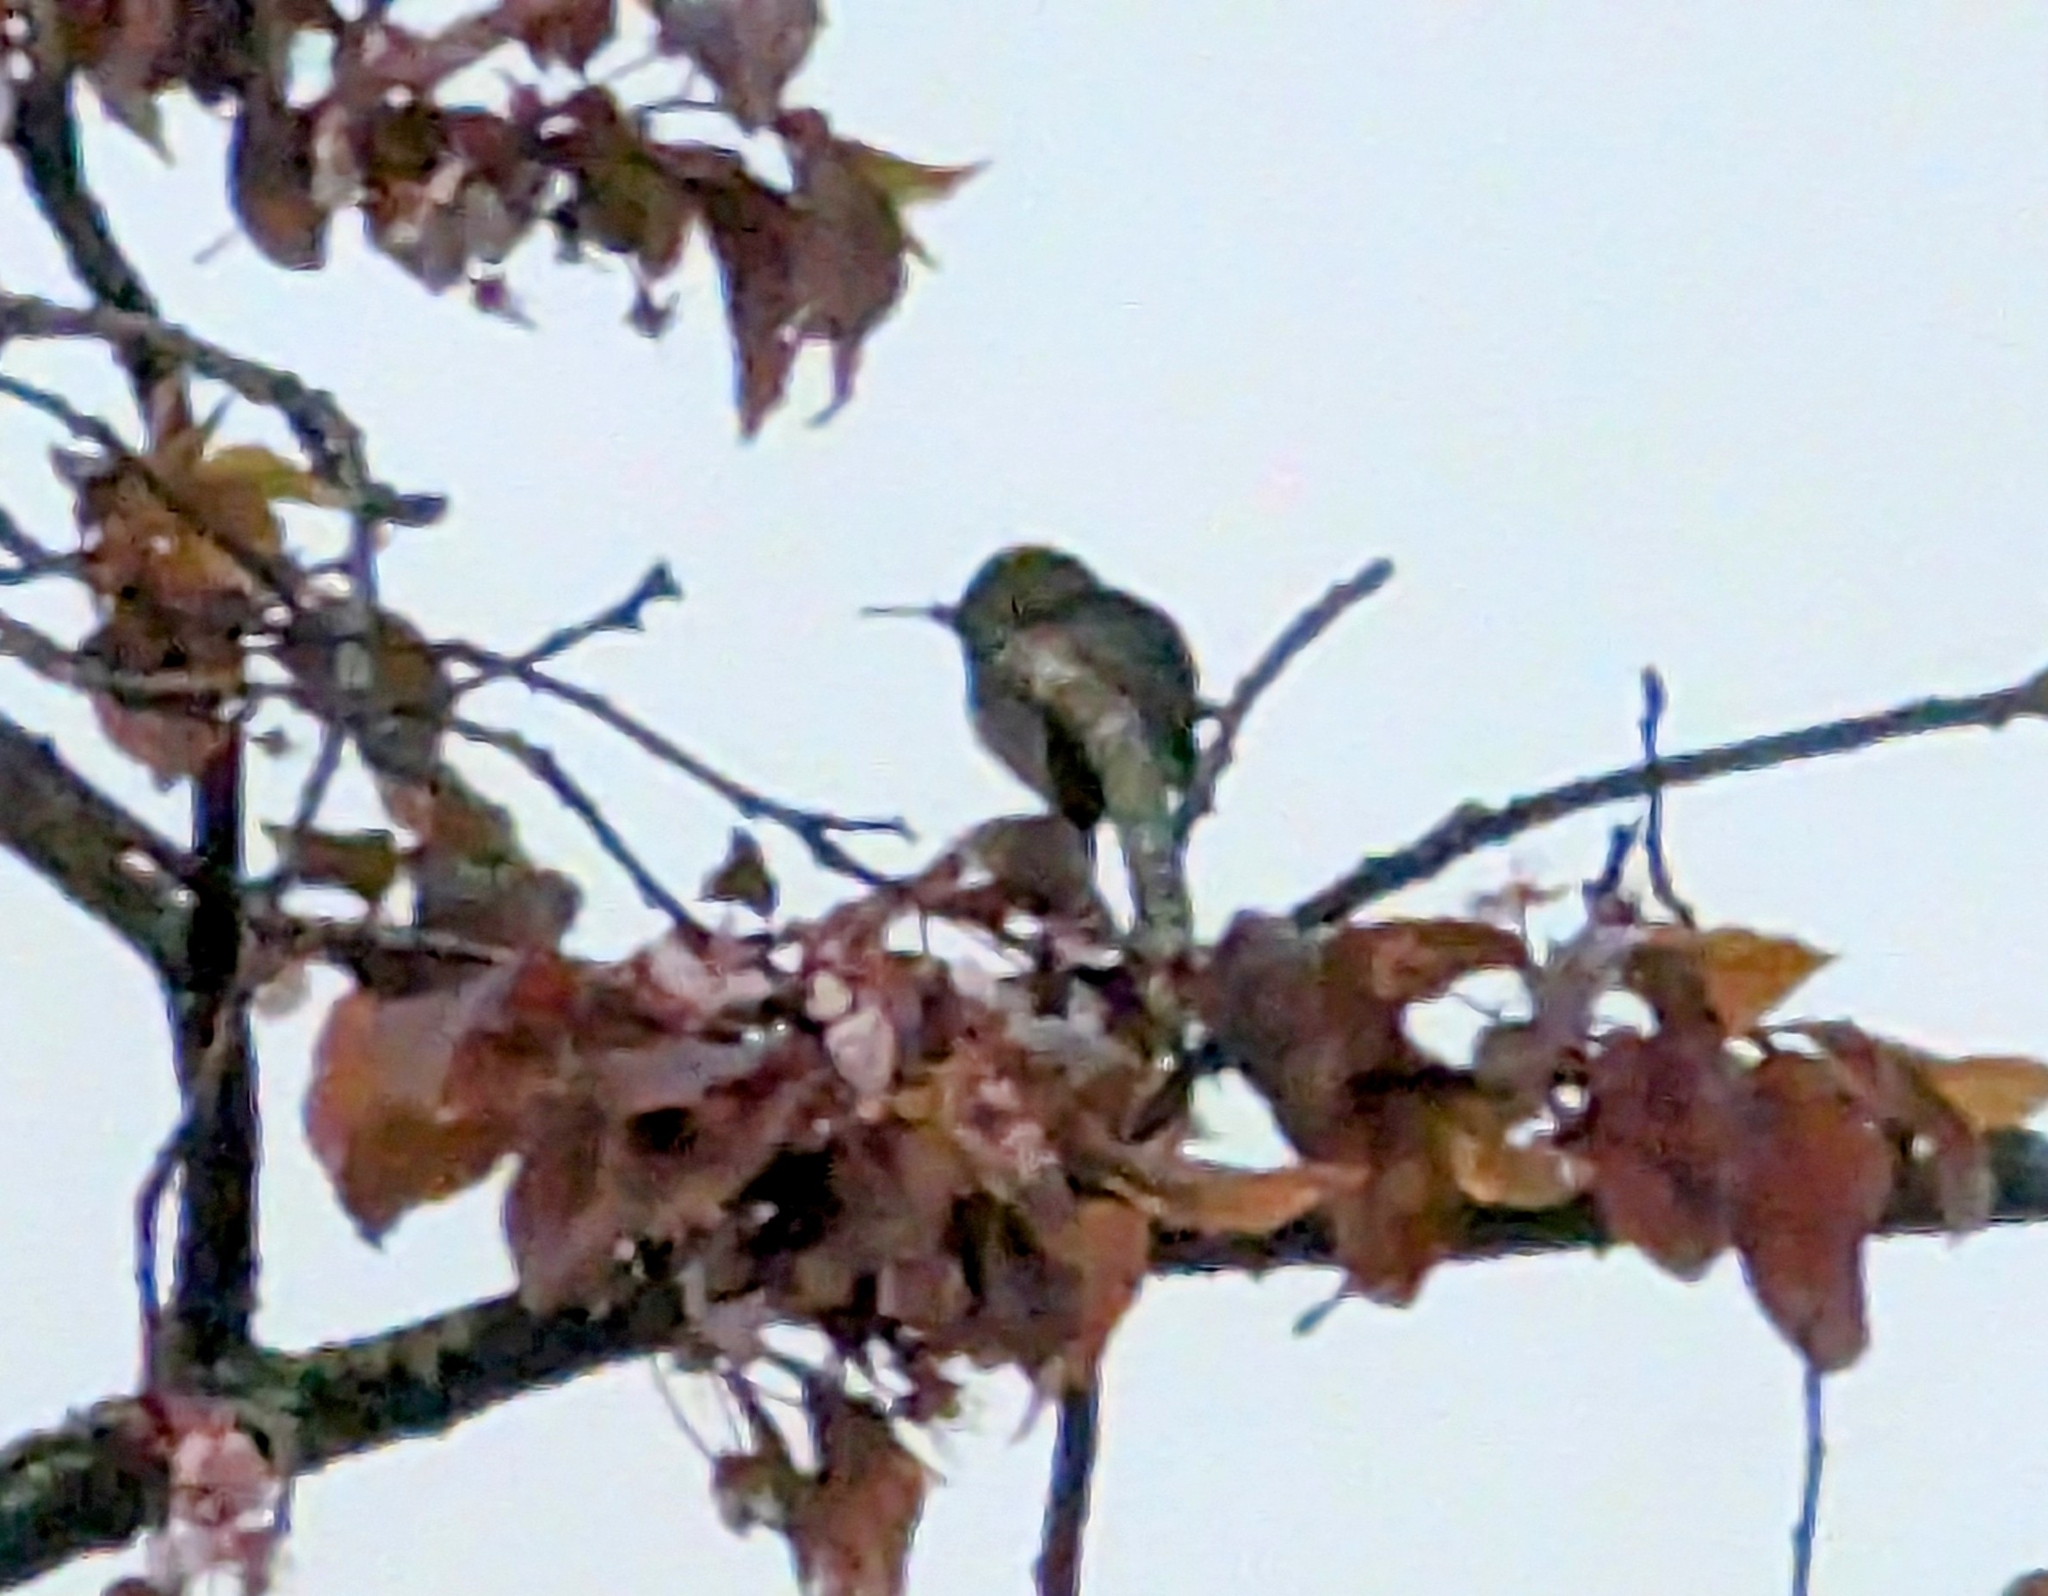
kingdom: Animalia
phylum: Chordata
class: Aves
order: Apodiformes
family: Trochilidae
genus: Calypte
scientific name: Calypte anna
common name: Anna's hummingbird
